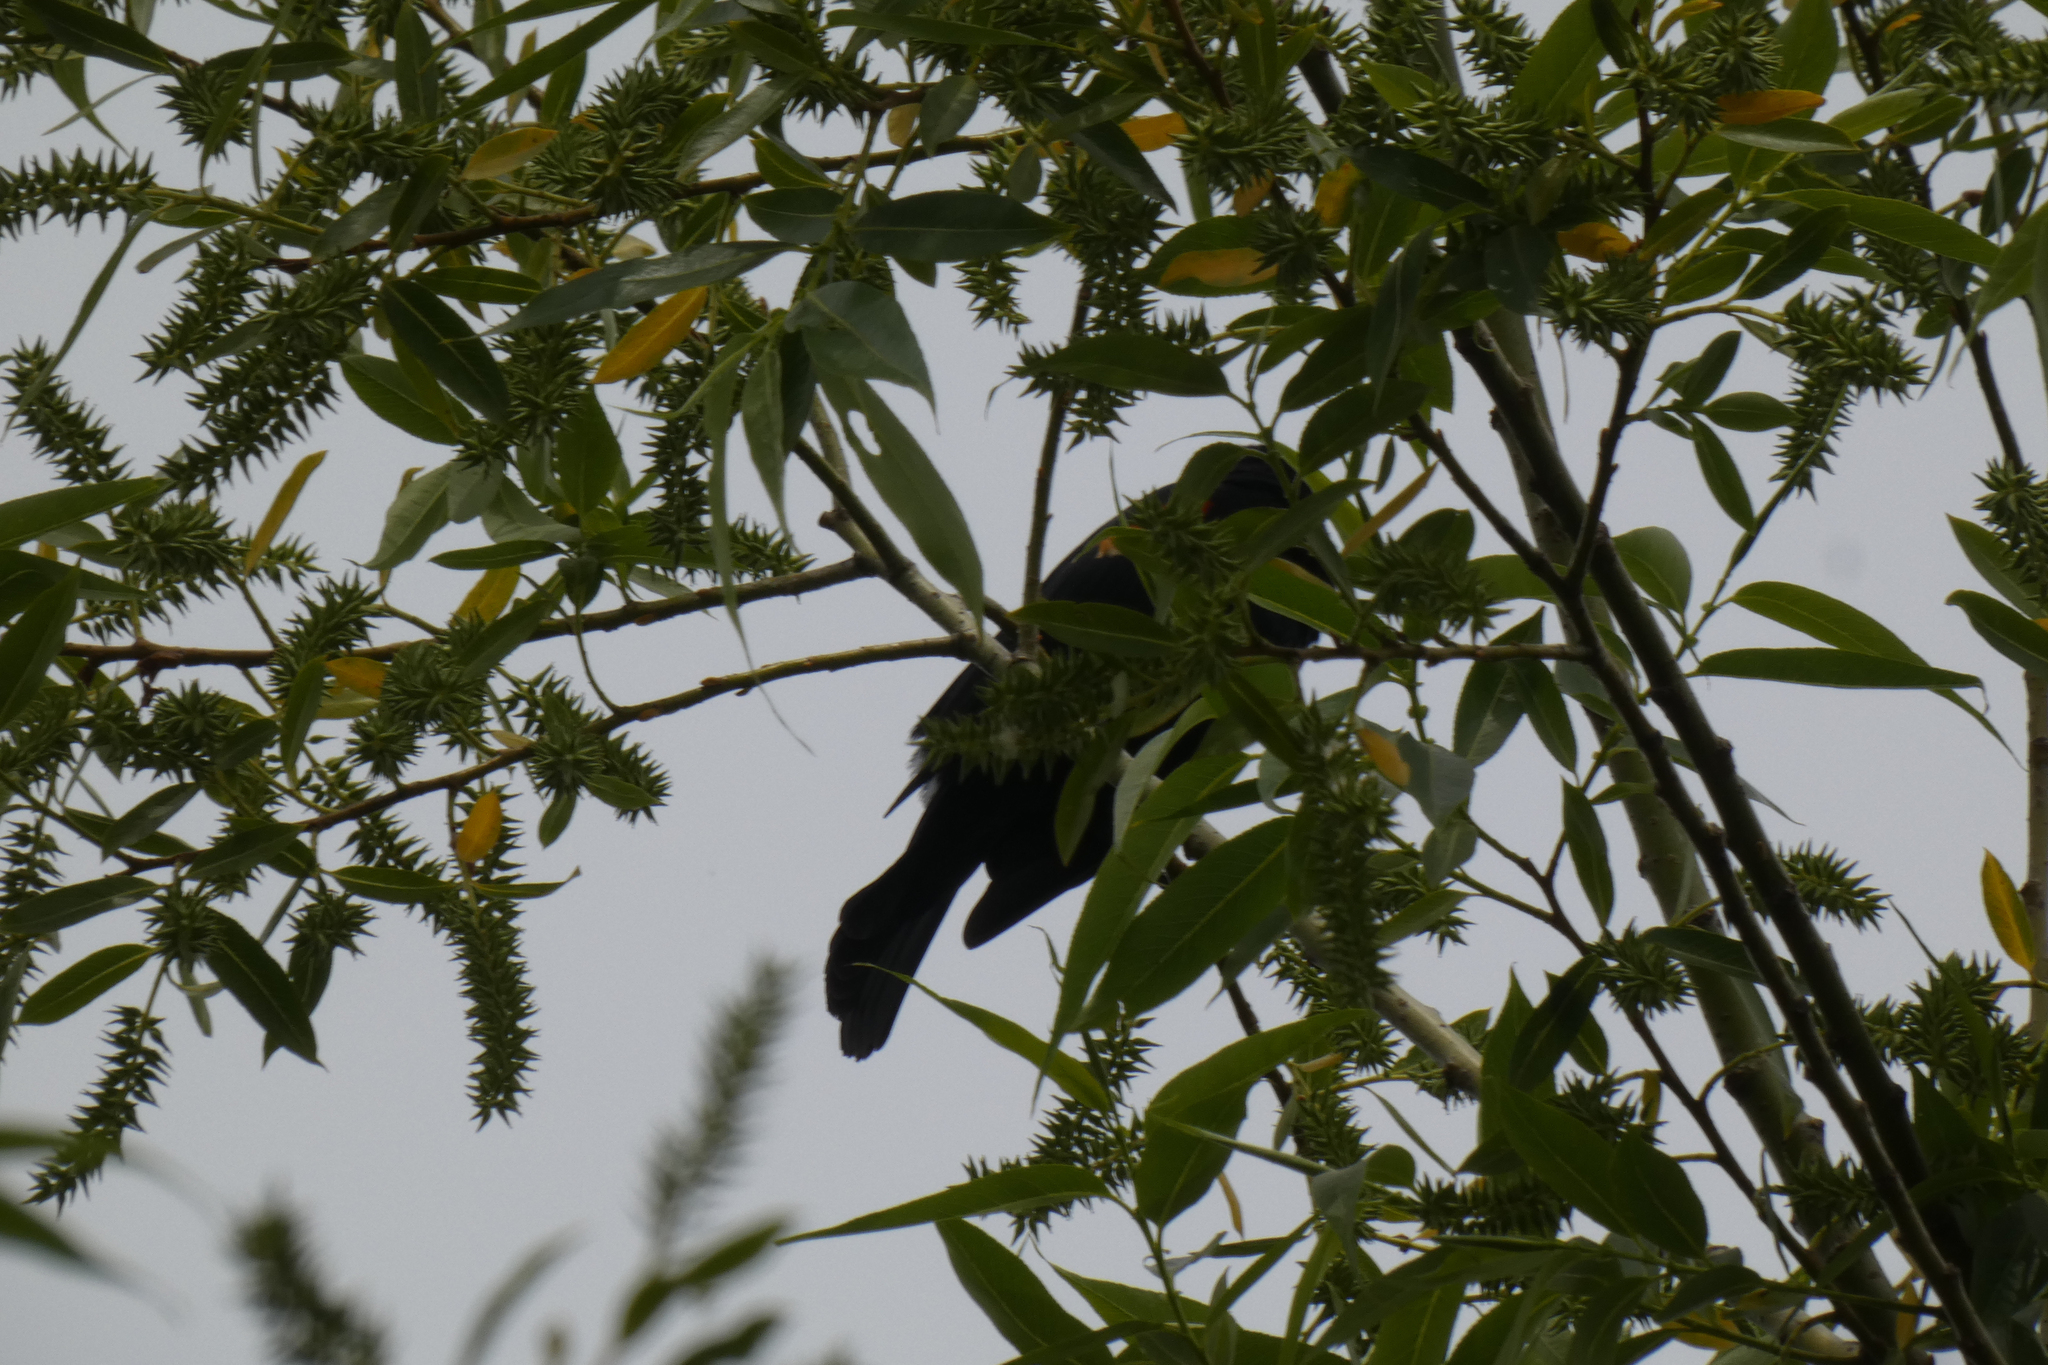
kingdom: Animalia
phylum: Chordata
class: Aves
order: Passeriformes
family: Icteridae
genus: Agelaius
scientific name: Agelaius phoeniceus
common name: Red-winged blackbird
